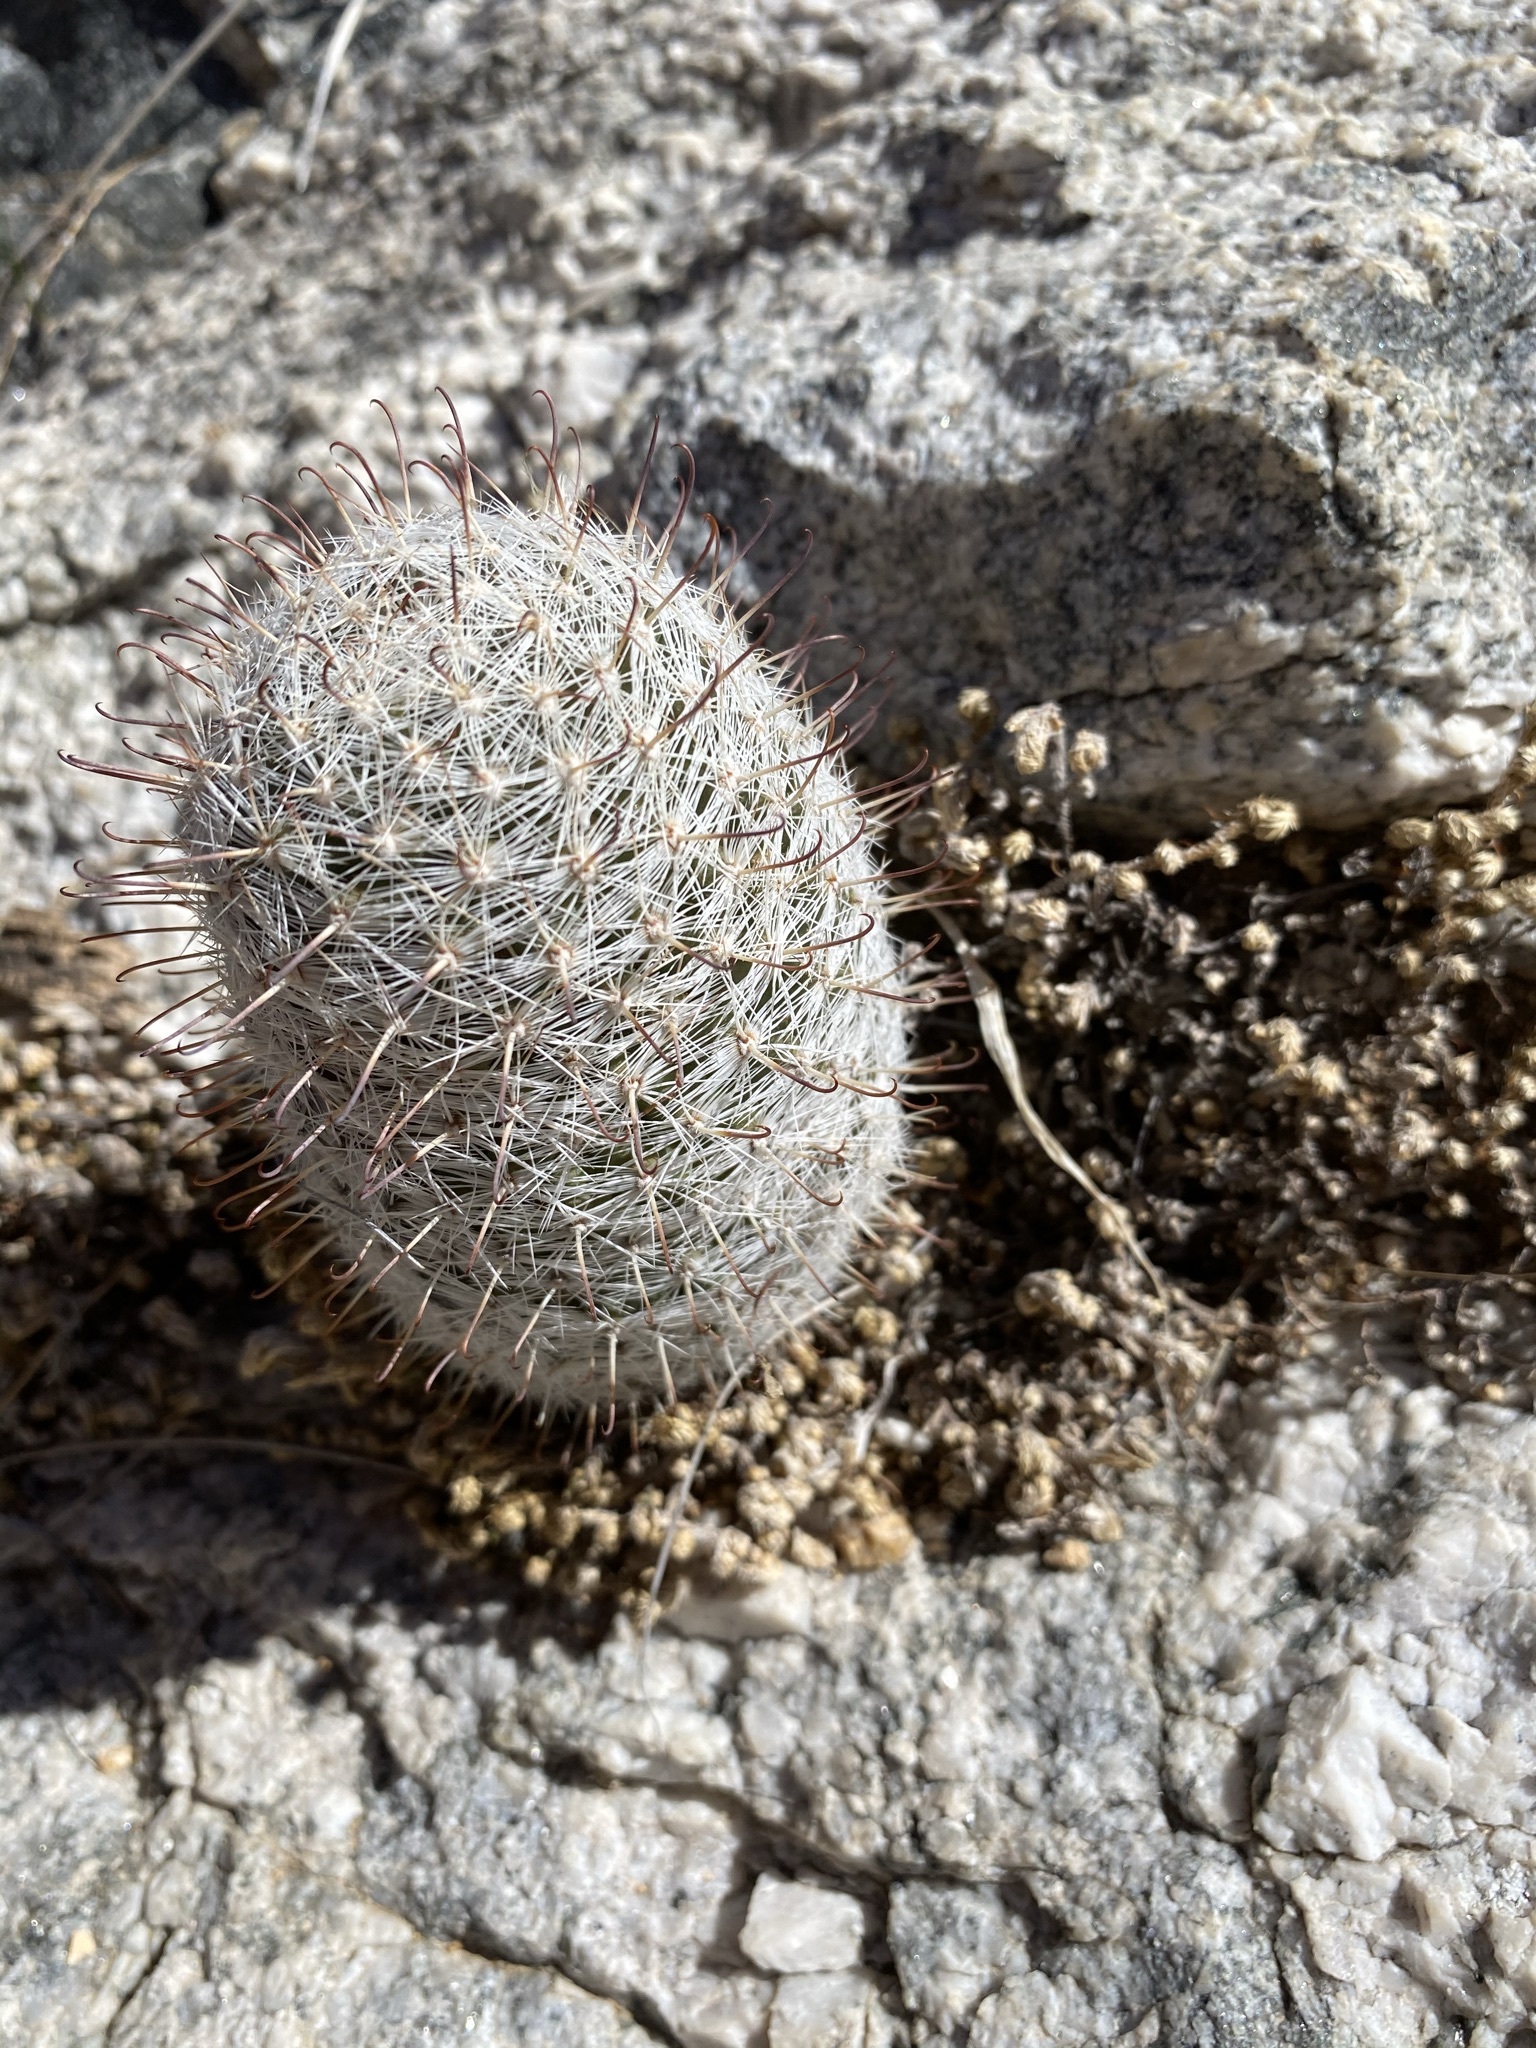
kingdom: Plantae
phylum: Tracheophyta
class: Magnoliopsida
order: Caryophyllales
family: Cactaceae
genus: Cochemiea
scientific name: Cochemiea grahamii
